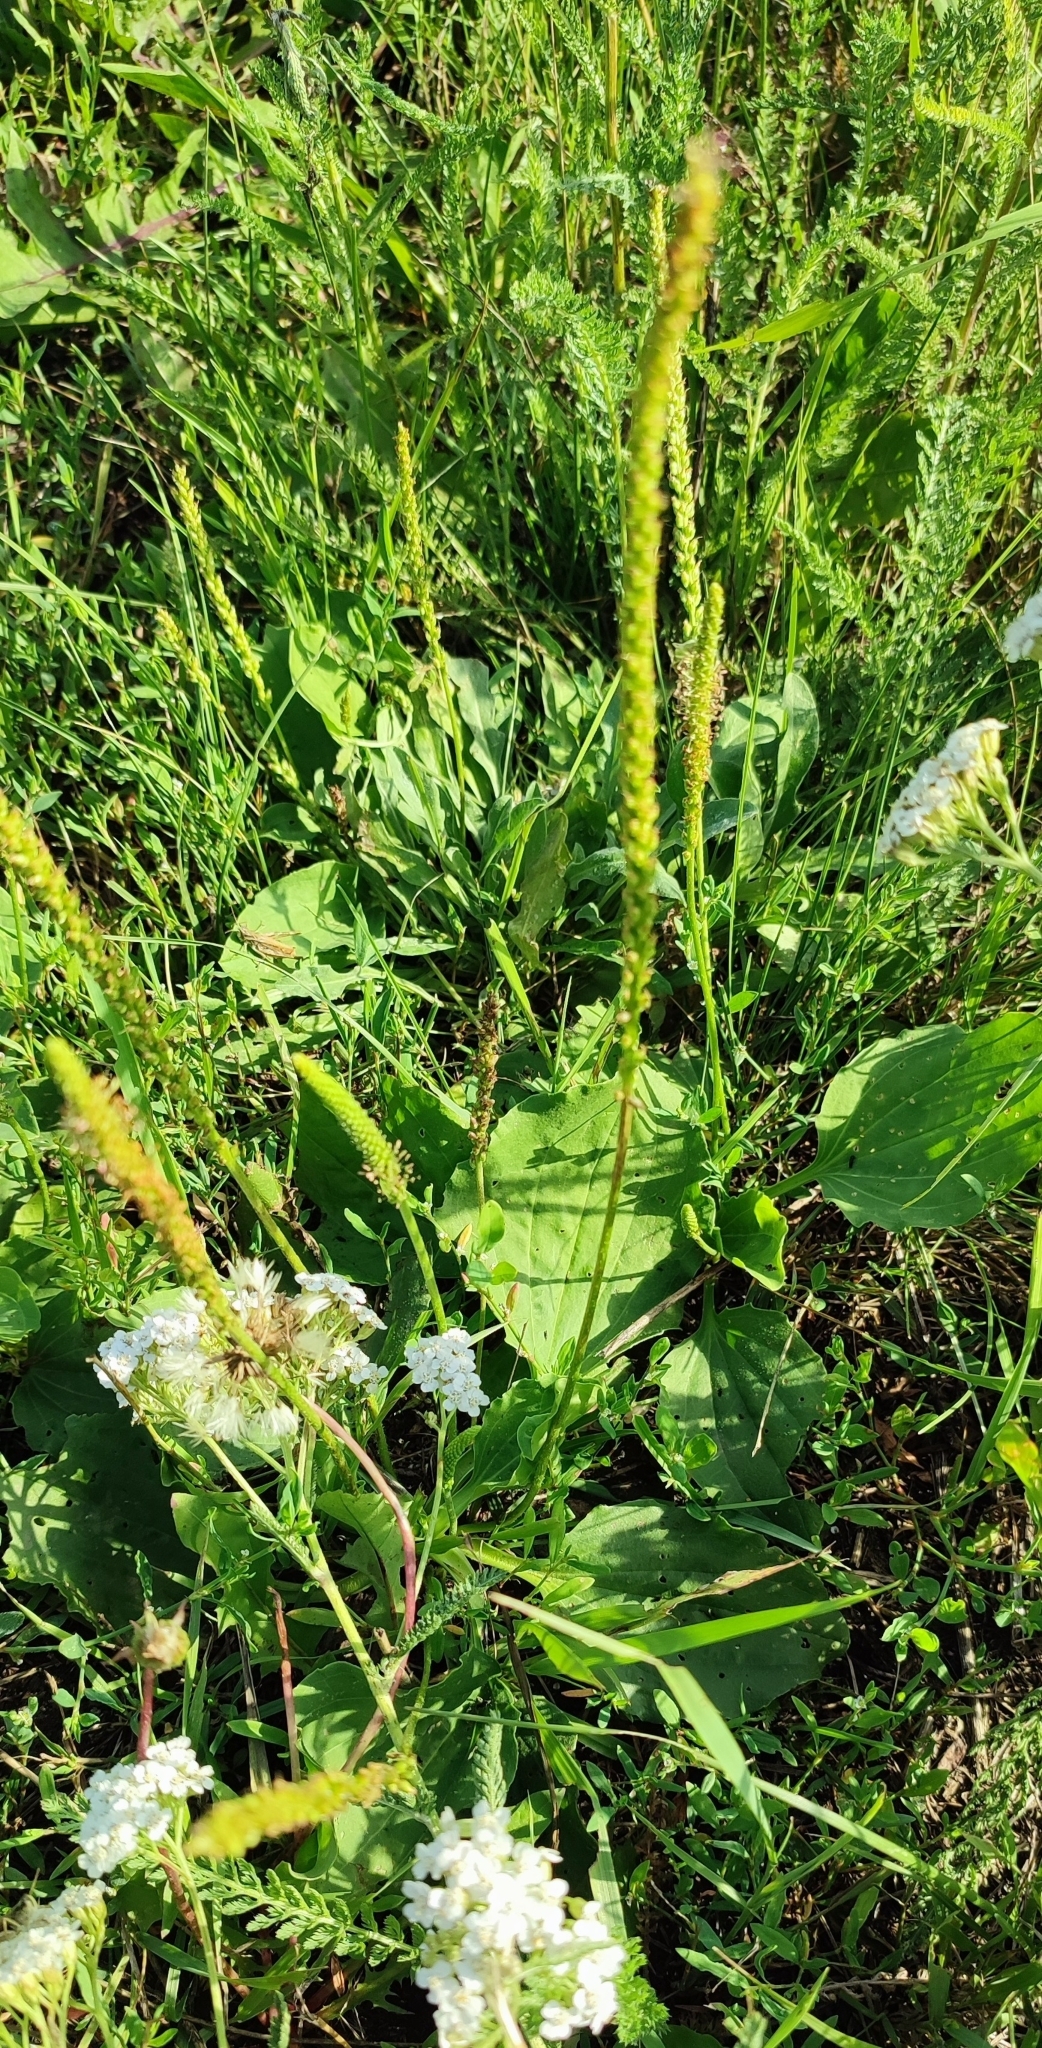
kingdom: Plantae
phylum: Tracheophyta
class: Magnoliopsida
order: Lamiales
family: Plantaginaceae
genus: Plantago
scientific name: Plantago major
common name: Common plantain
